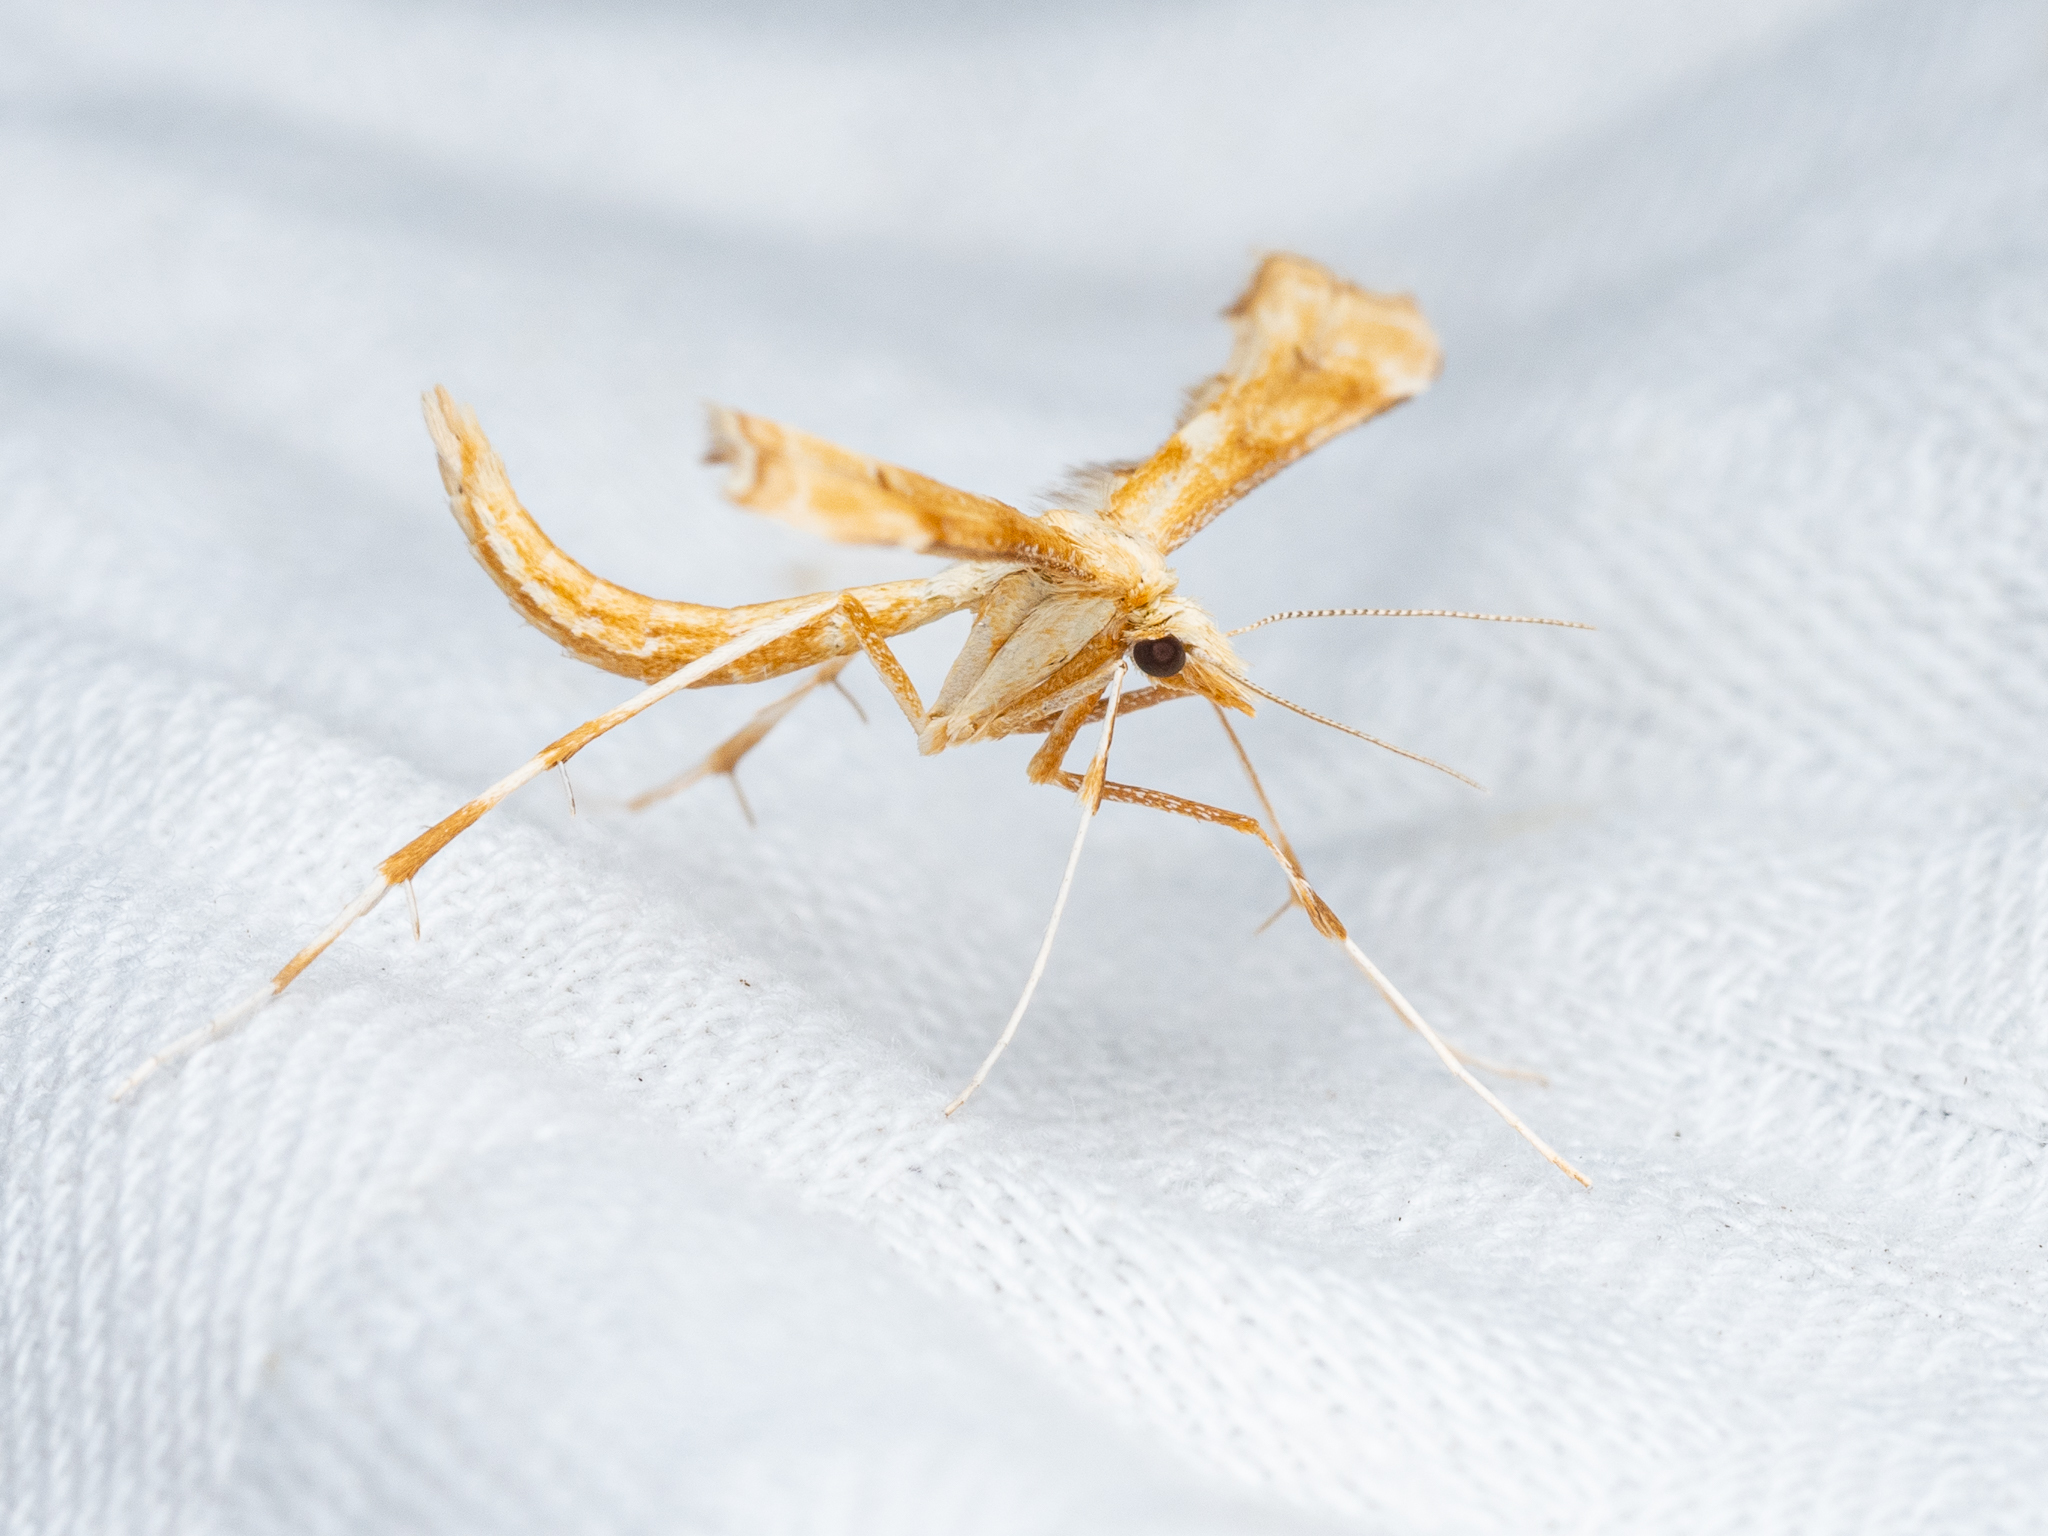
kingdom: Animalia
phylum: Arthropoda
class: Insecta
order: Lepidoptera
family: Pterophoridae
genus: Gillmeria
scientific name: Gillmeria ochrodactyla
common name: Tansy plume
